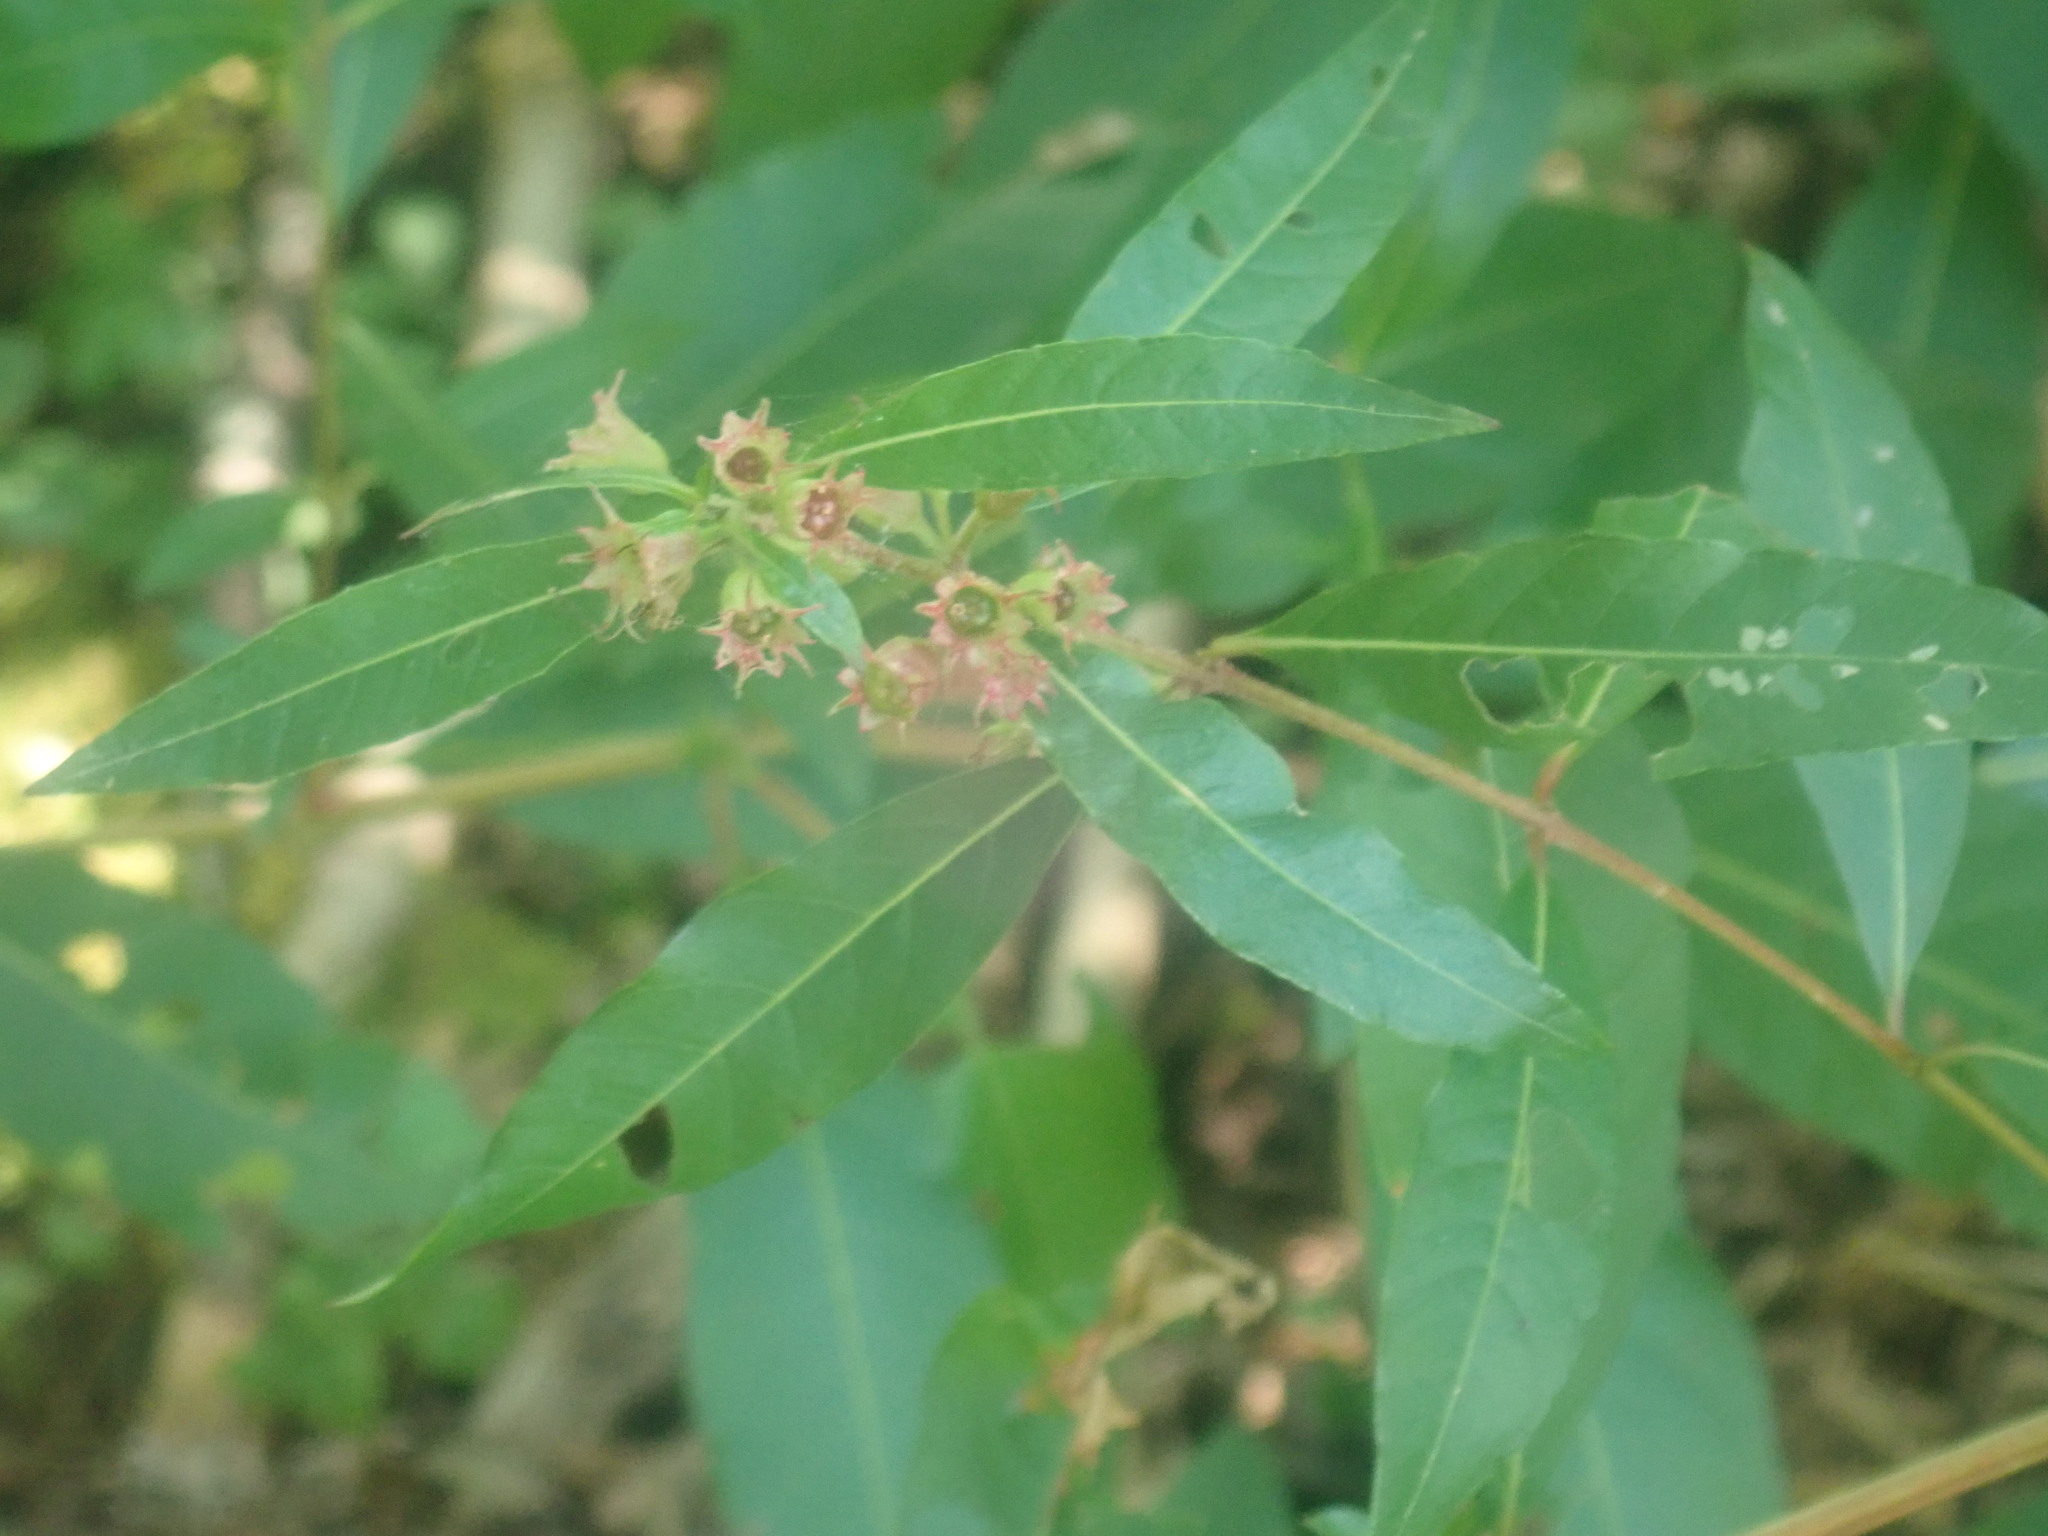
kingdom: Plantae
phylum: Tracheophyta
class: Magnoliopsida
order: Myrtales
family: Lythraceae
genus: Decodon
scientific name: Decodon verticillatus
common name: Hairy swamp loosestrife
